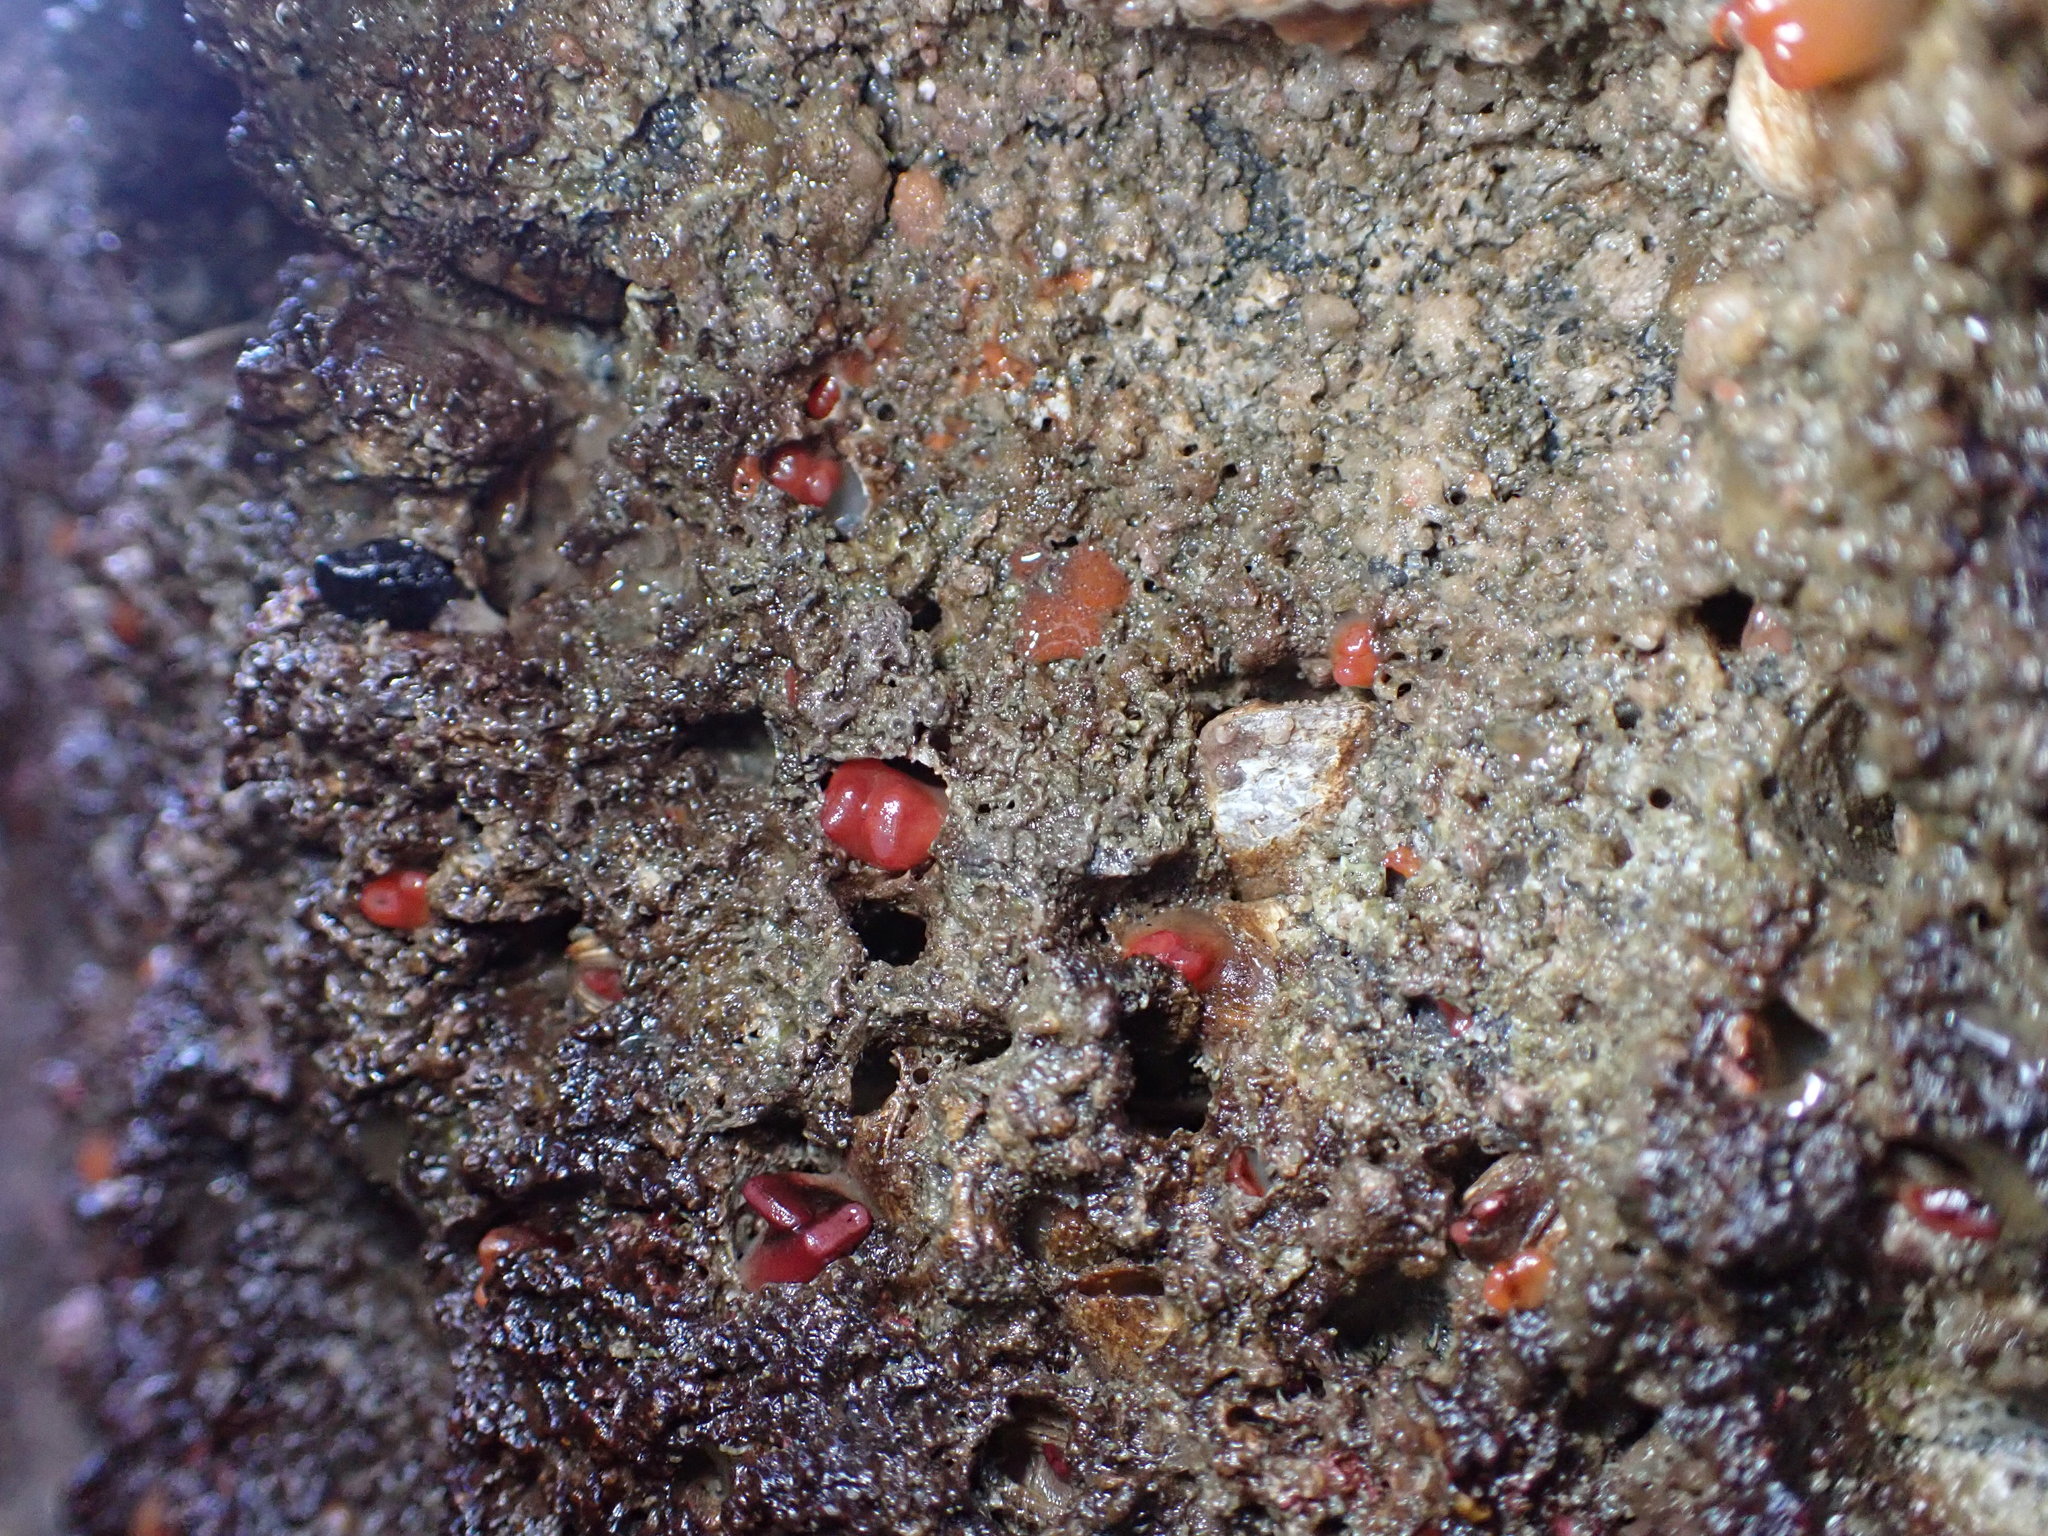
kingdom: Animalia
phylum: Mollusca
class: Bivalvia
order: Adapedonta
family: Hiatellidae
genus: Hiatella
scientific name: Hiatella arctica
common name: Arctic hiatella
